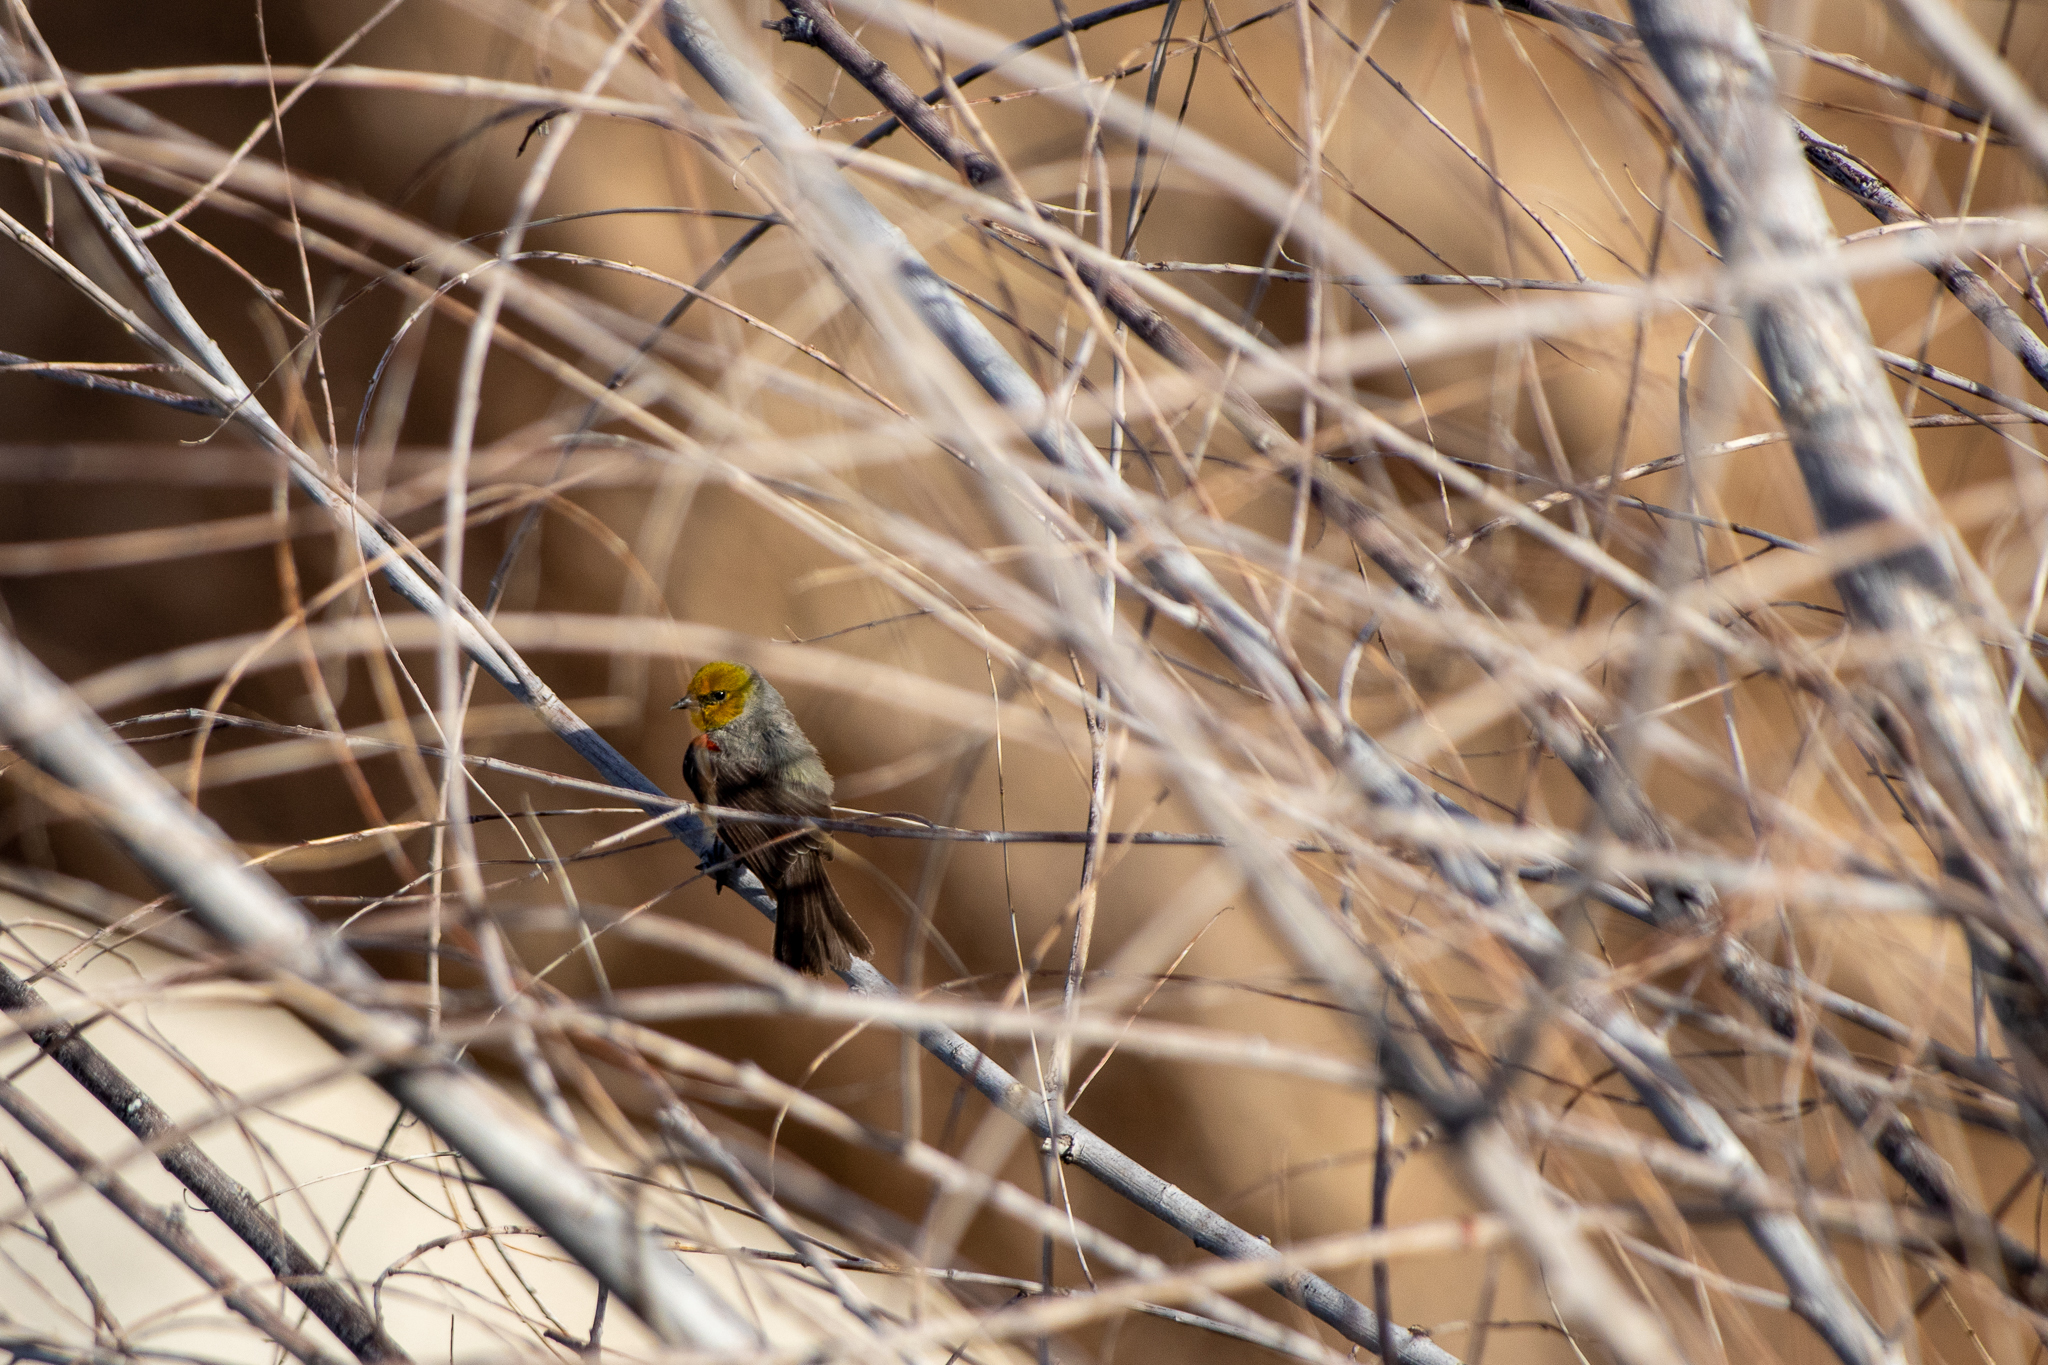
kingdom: Animalia
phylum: Chordata
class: Aves
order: Passeriformes
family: Remizidae
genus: Auriparus
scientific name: Auriparus flaviceps
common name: Verdin
